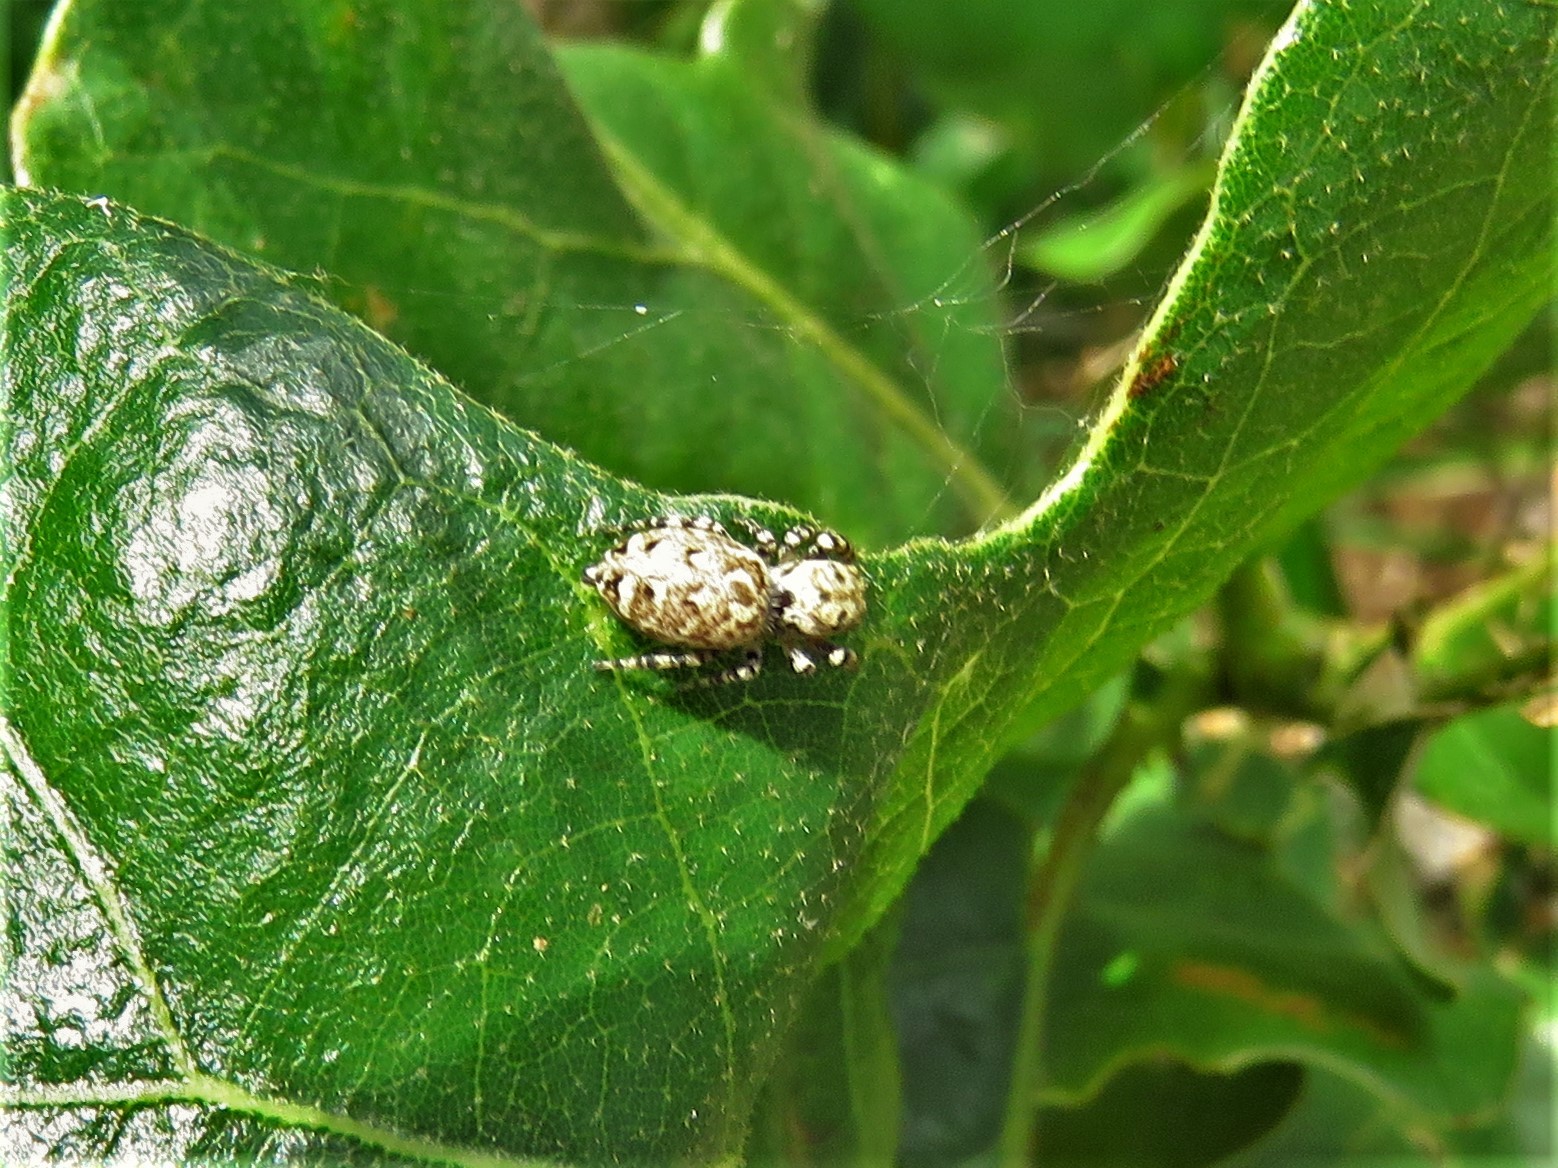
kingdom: Animalia
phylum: Arthropoda
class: Arachnida
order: Araneae
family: Salticidae
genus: Pelegrina
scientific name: Pelegrina galathea
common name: Jumping spiders
